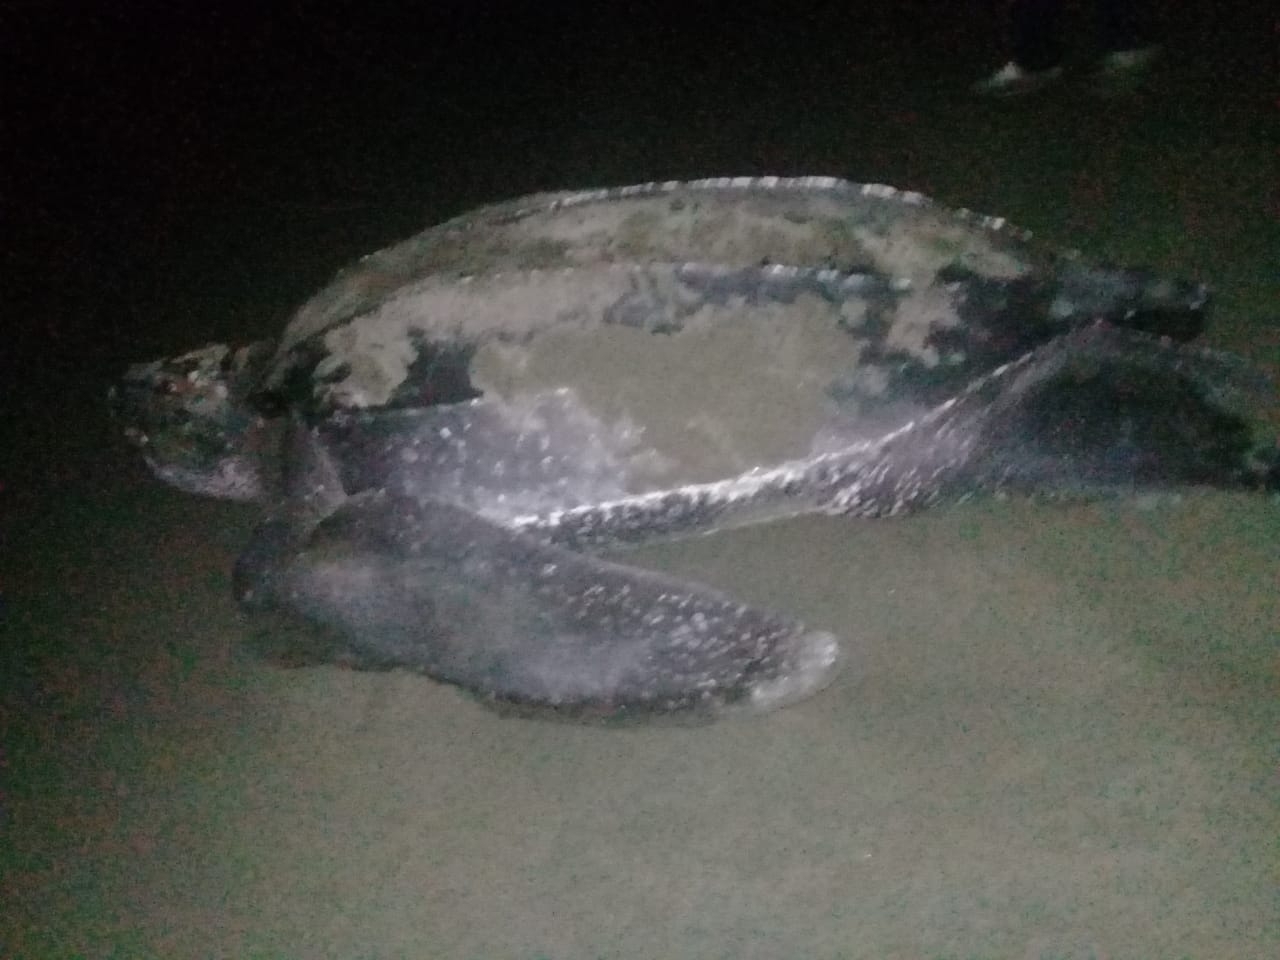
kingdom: Animalia
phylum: Chordata
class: Testudines
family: Dermochelyidae
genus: Dermochelys
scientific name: Dermochelys coriacea
